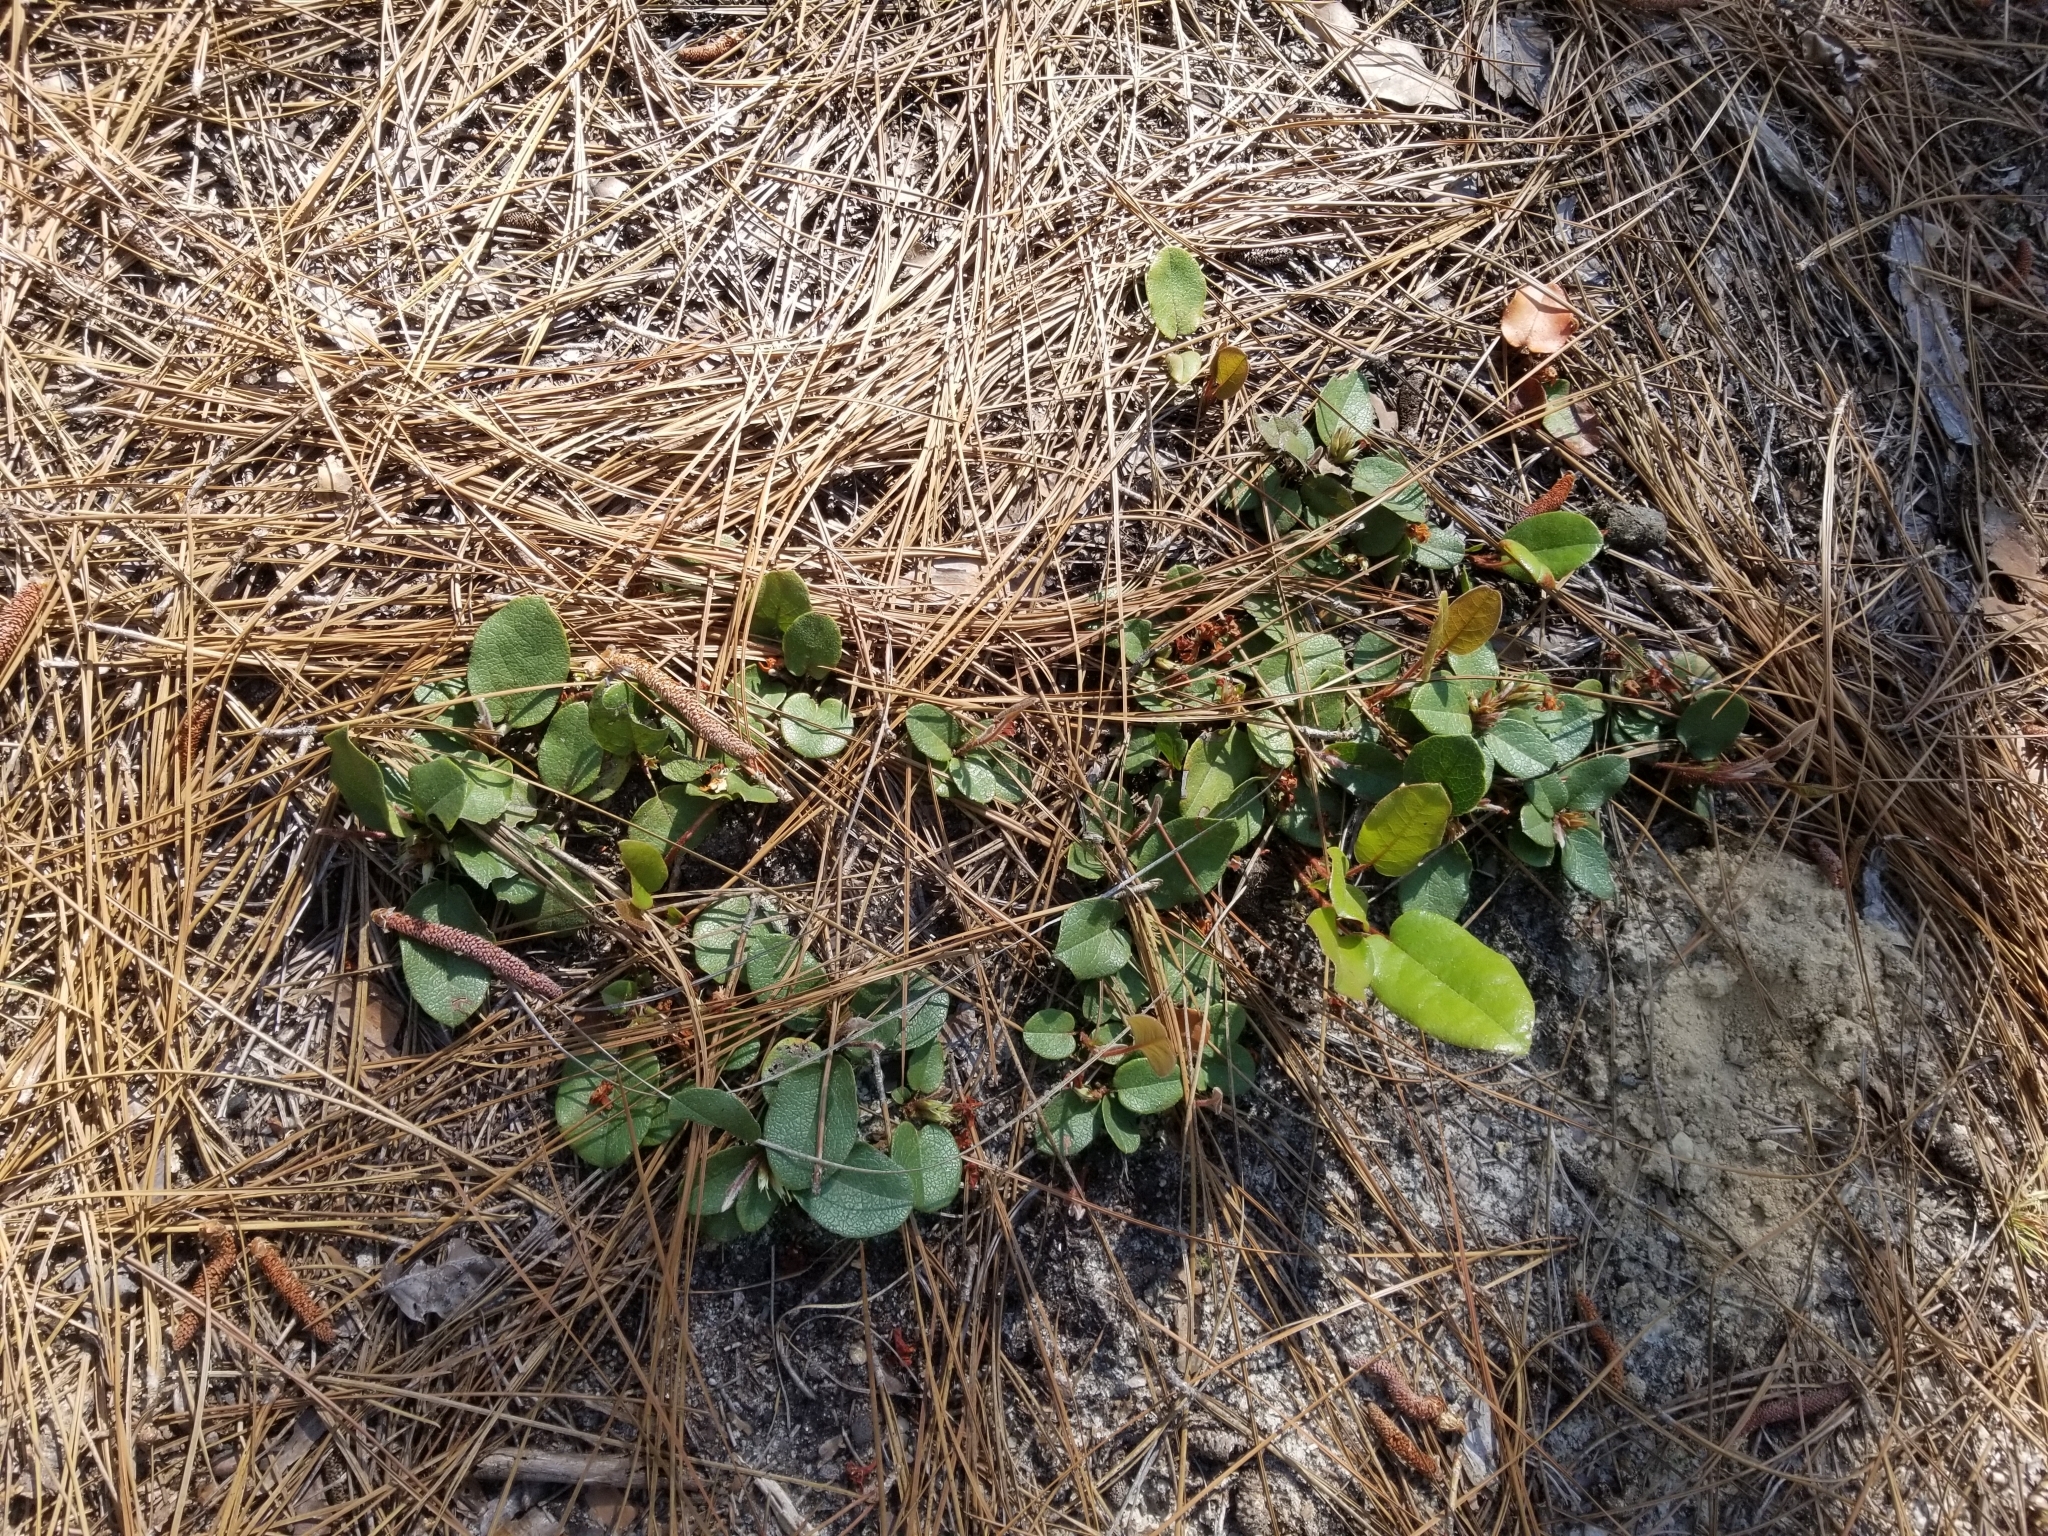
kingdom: Plantae
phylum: Tracheophyta
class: Magnoliopsida
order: Ericales
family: Ericaceae
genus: Epigaea
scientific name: Epigaea repens
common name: Gravelroot
